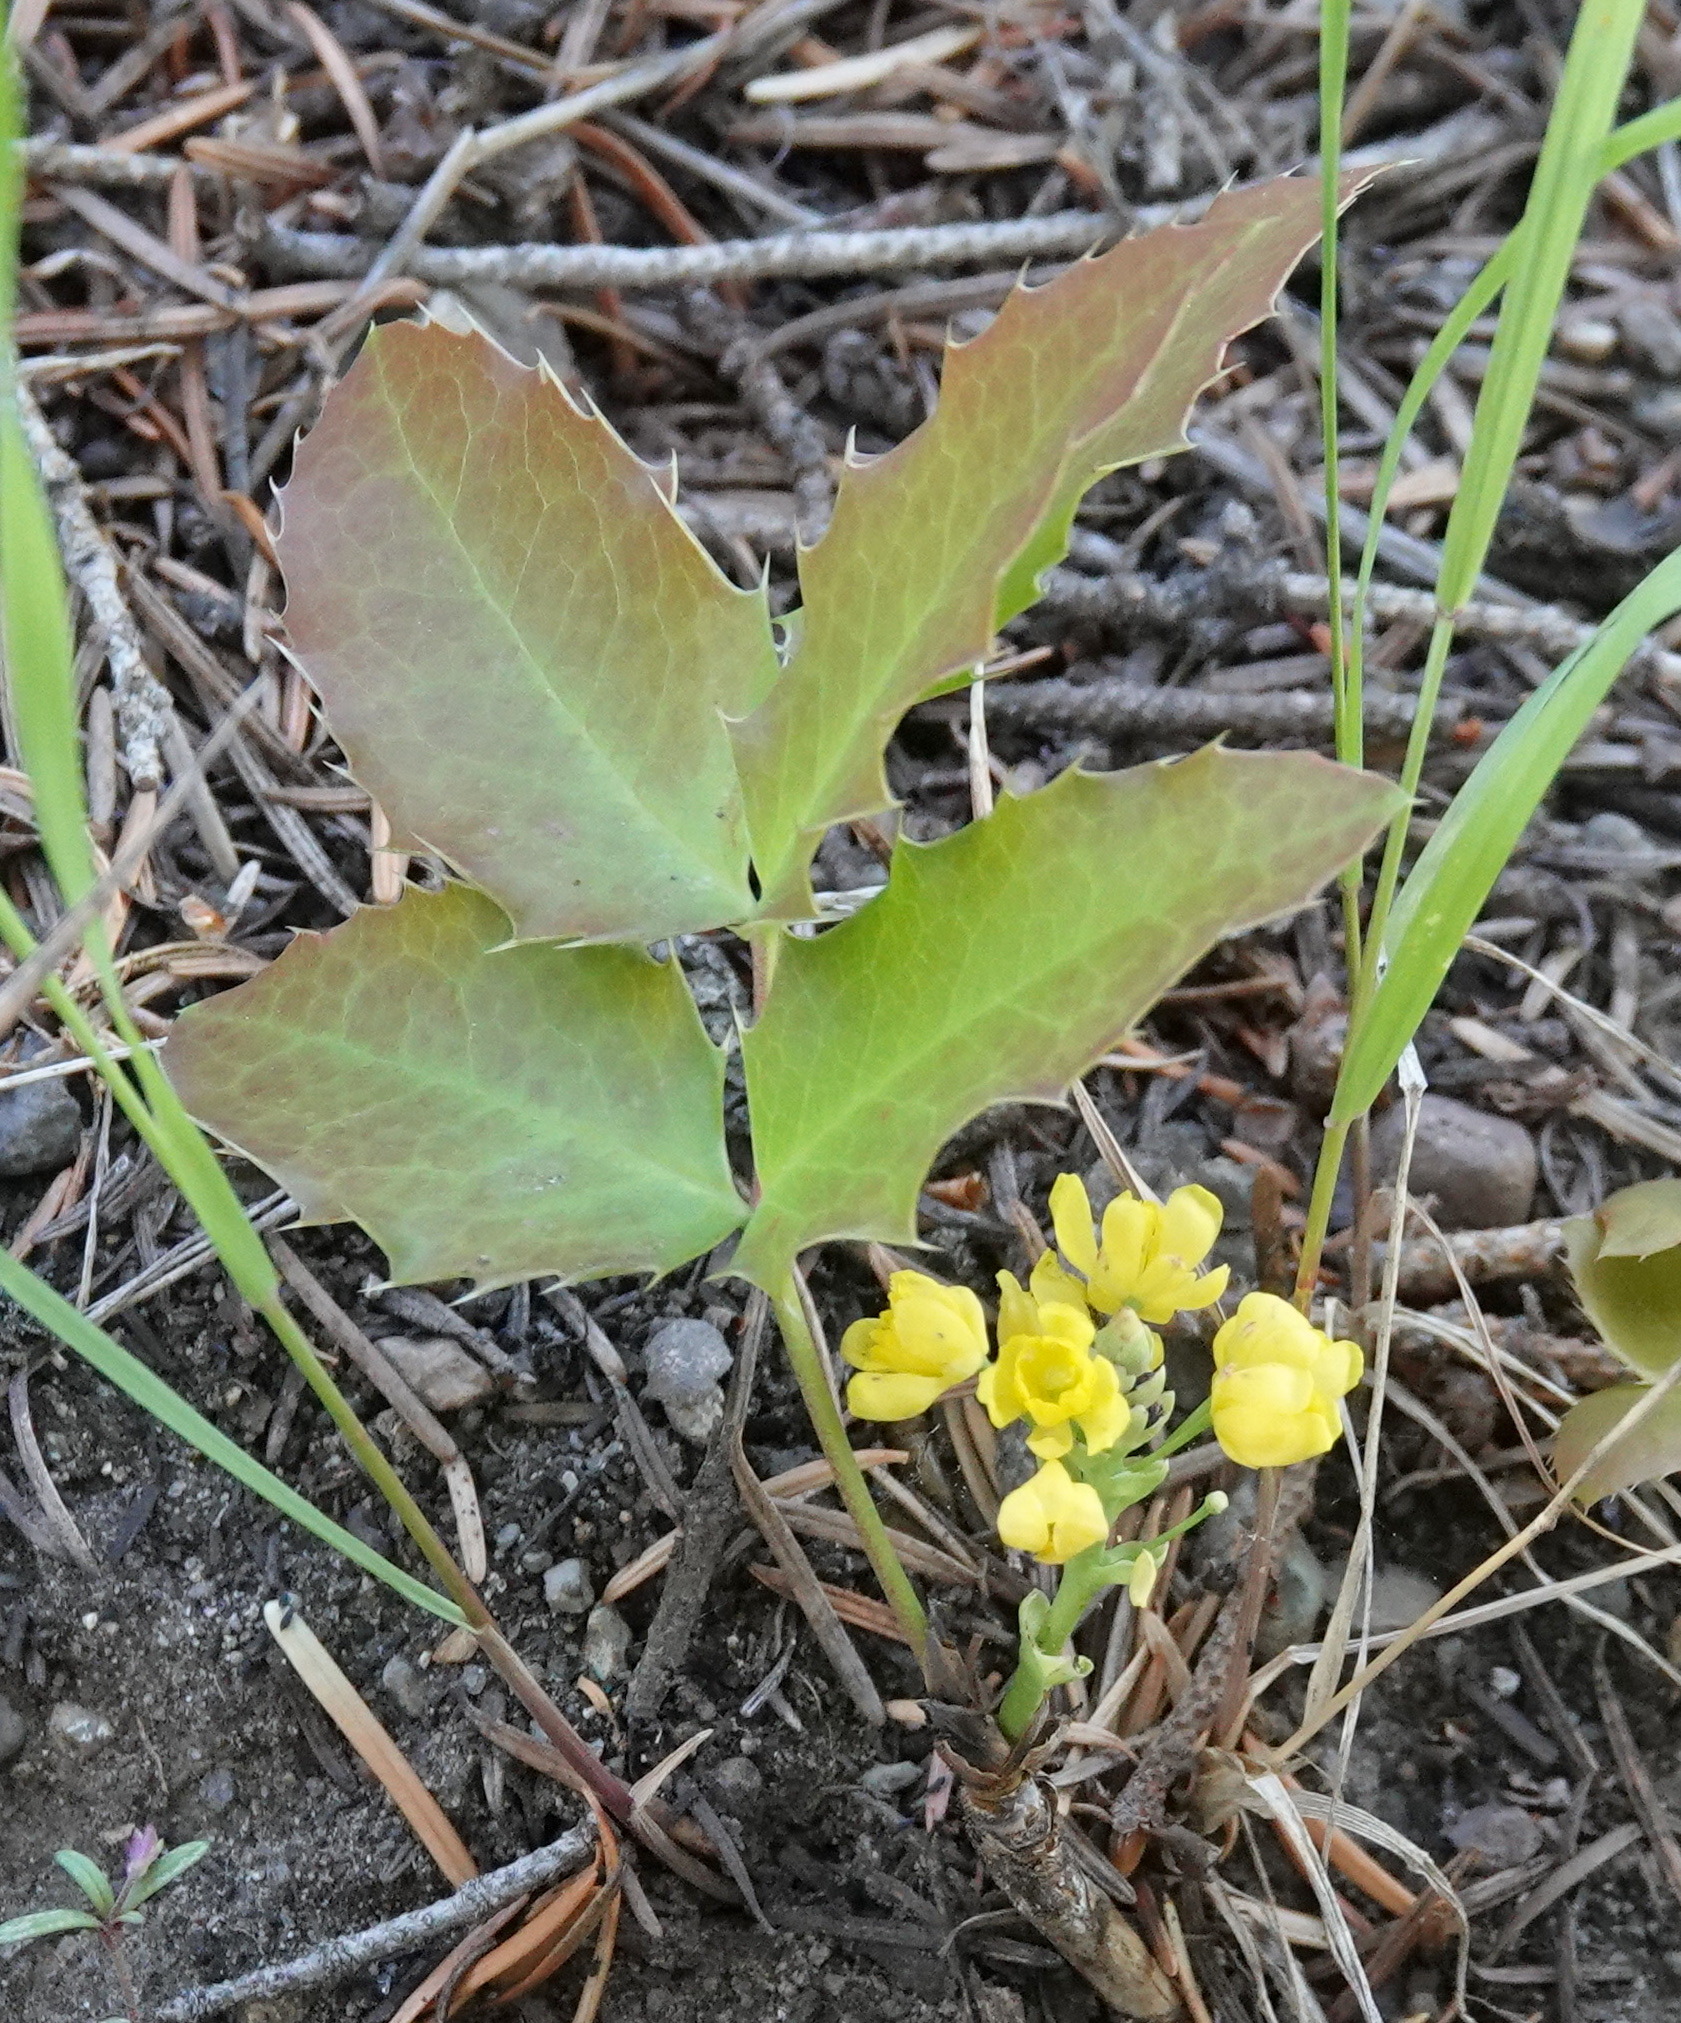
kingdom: Plantae
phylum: Tracheophyta
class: Magnoliopsida
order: Ranunculales
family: Berberidaceae
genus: Mahonia
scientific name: Mahonia repens
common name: Creeping oregon-grape
